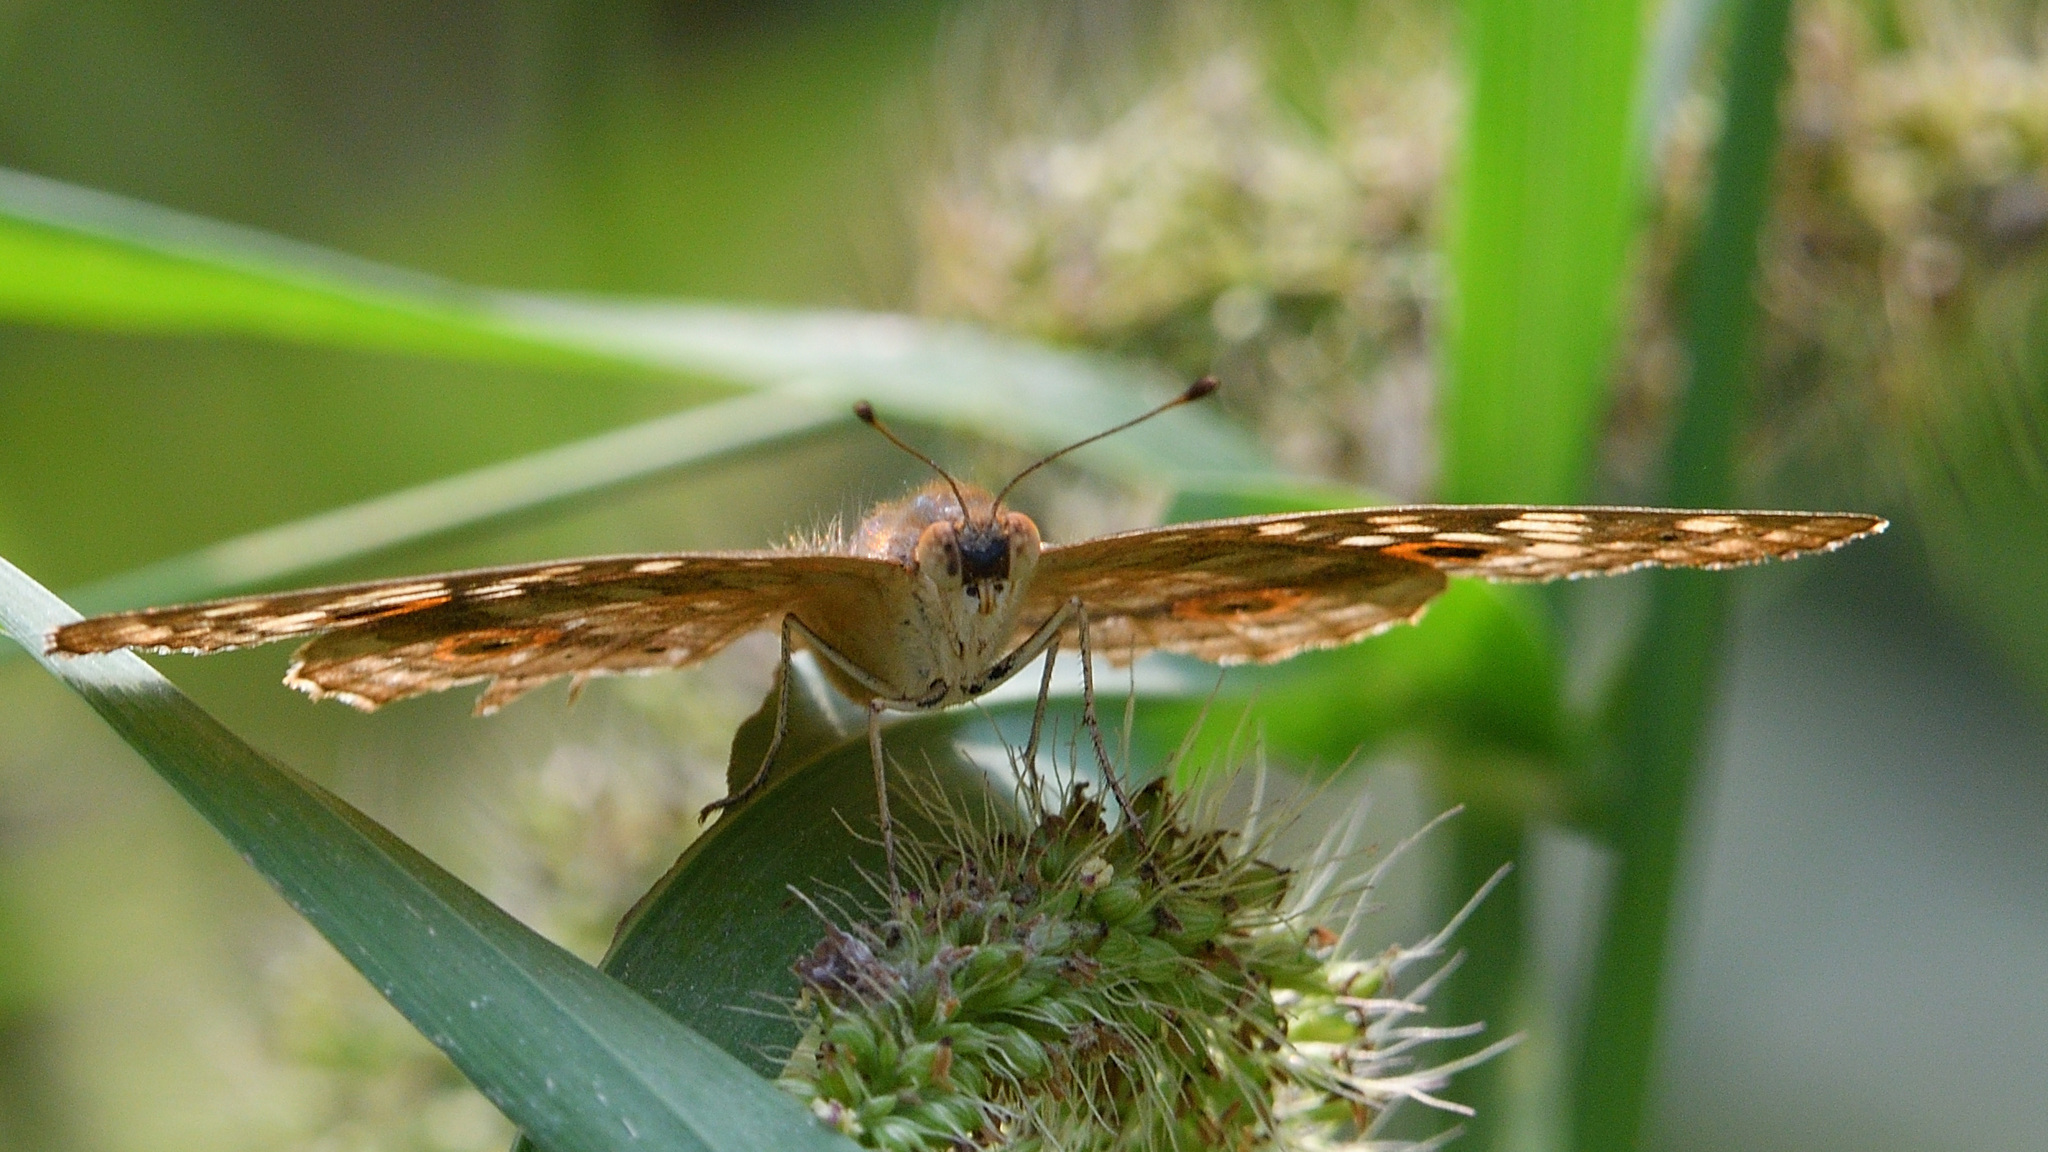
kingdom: Animalia
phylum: Arthropoda
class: Insecta
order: Lepidoptera
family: Nymphalidae
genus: Junonia
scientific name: Junonia lemonias
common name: Lemon pansy
